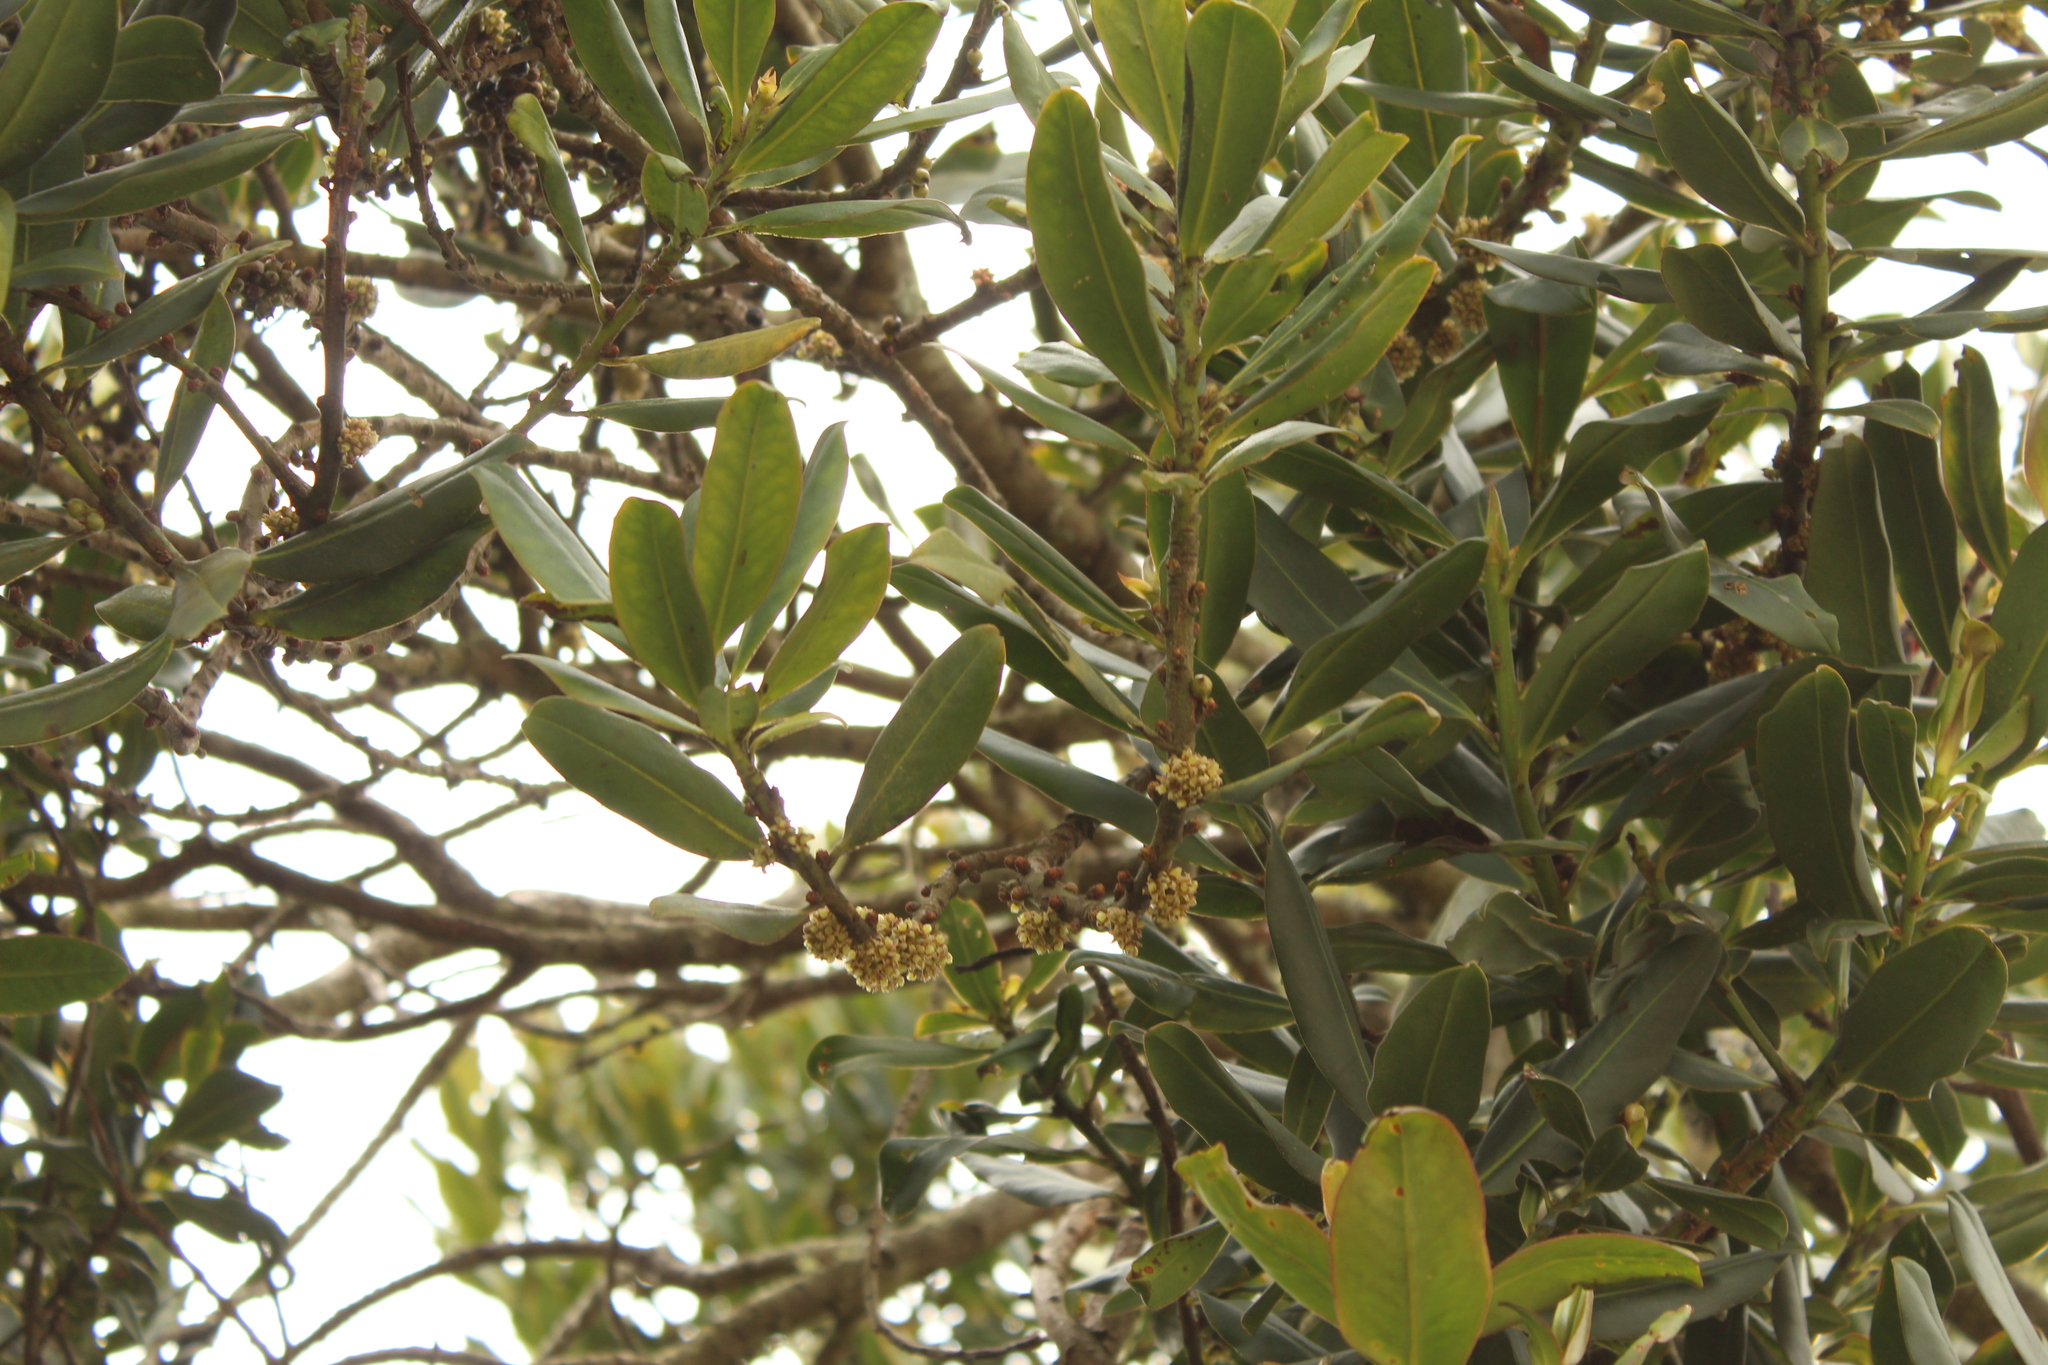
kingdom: Plantae
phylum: Tracheophyta
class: Magnoliopsida
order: Ericales
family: Primulaceae
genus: Myrsine
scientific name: Myrsine guianensis
